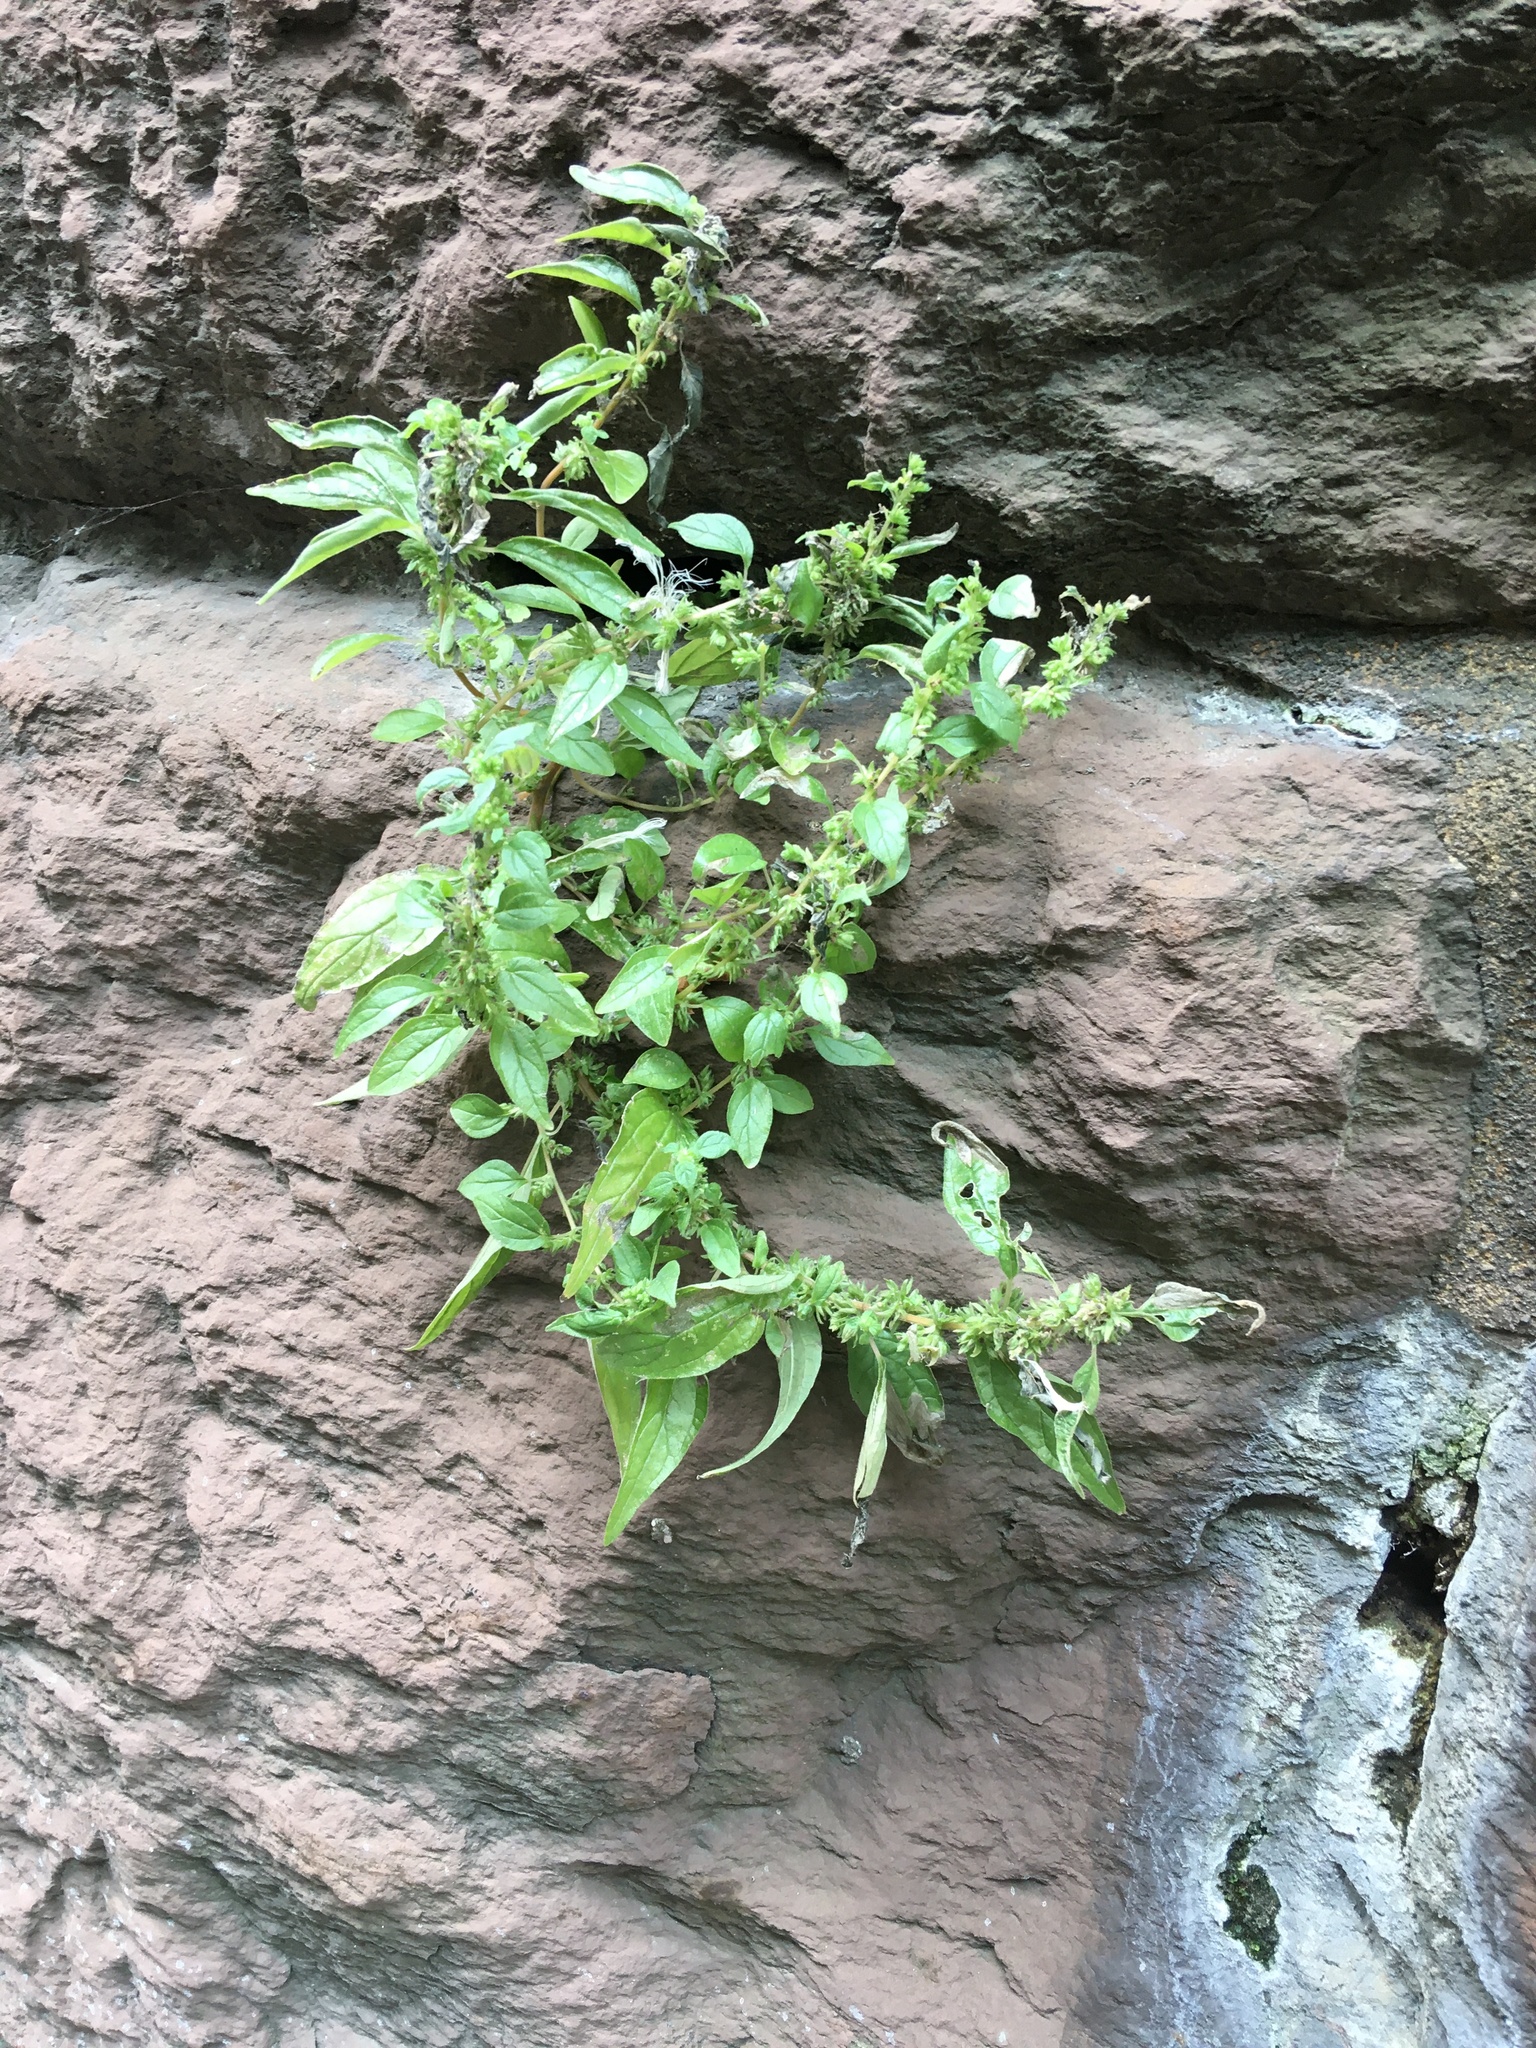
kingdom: Plantae
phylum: Tracheophyta
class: Magnoliopsida
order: Rosales
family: Urticaceae
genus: Parietaria
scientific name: Parietaria pensylvanica
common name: Pennsylvania pellitory
